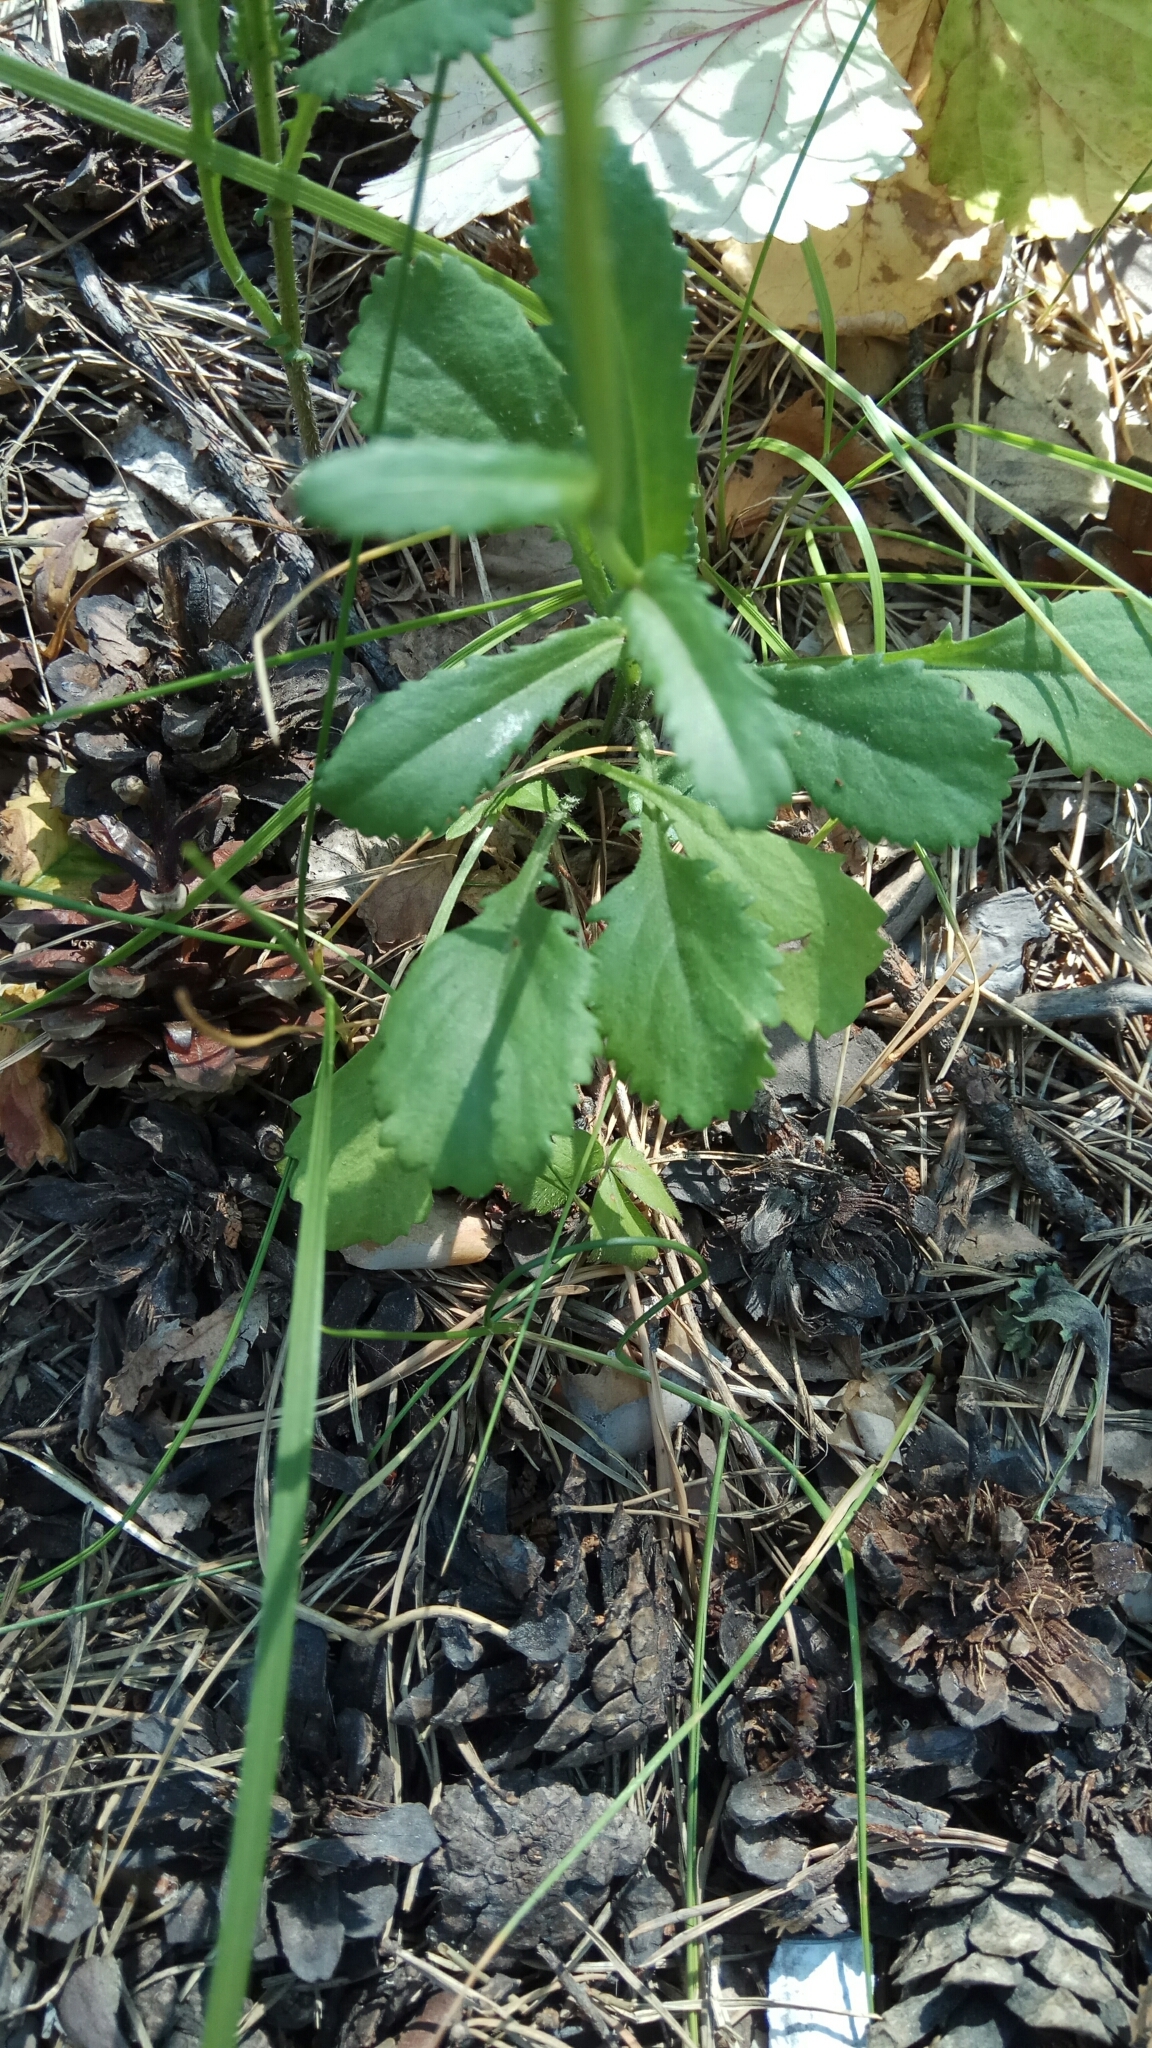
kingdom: Plantae
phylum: Tracheophyta
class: Magnoliopsida
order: Asterales
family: Asteraceae
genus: Leucanthemum
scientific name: Leucanthemum ircutianum
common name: Daisy
